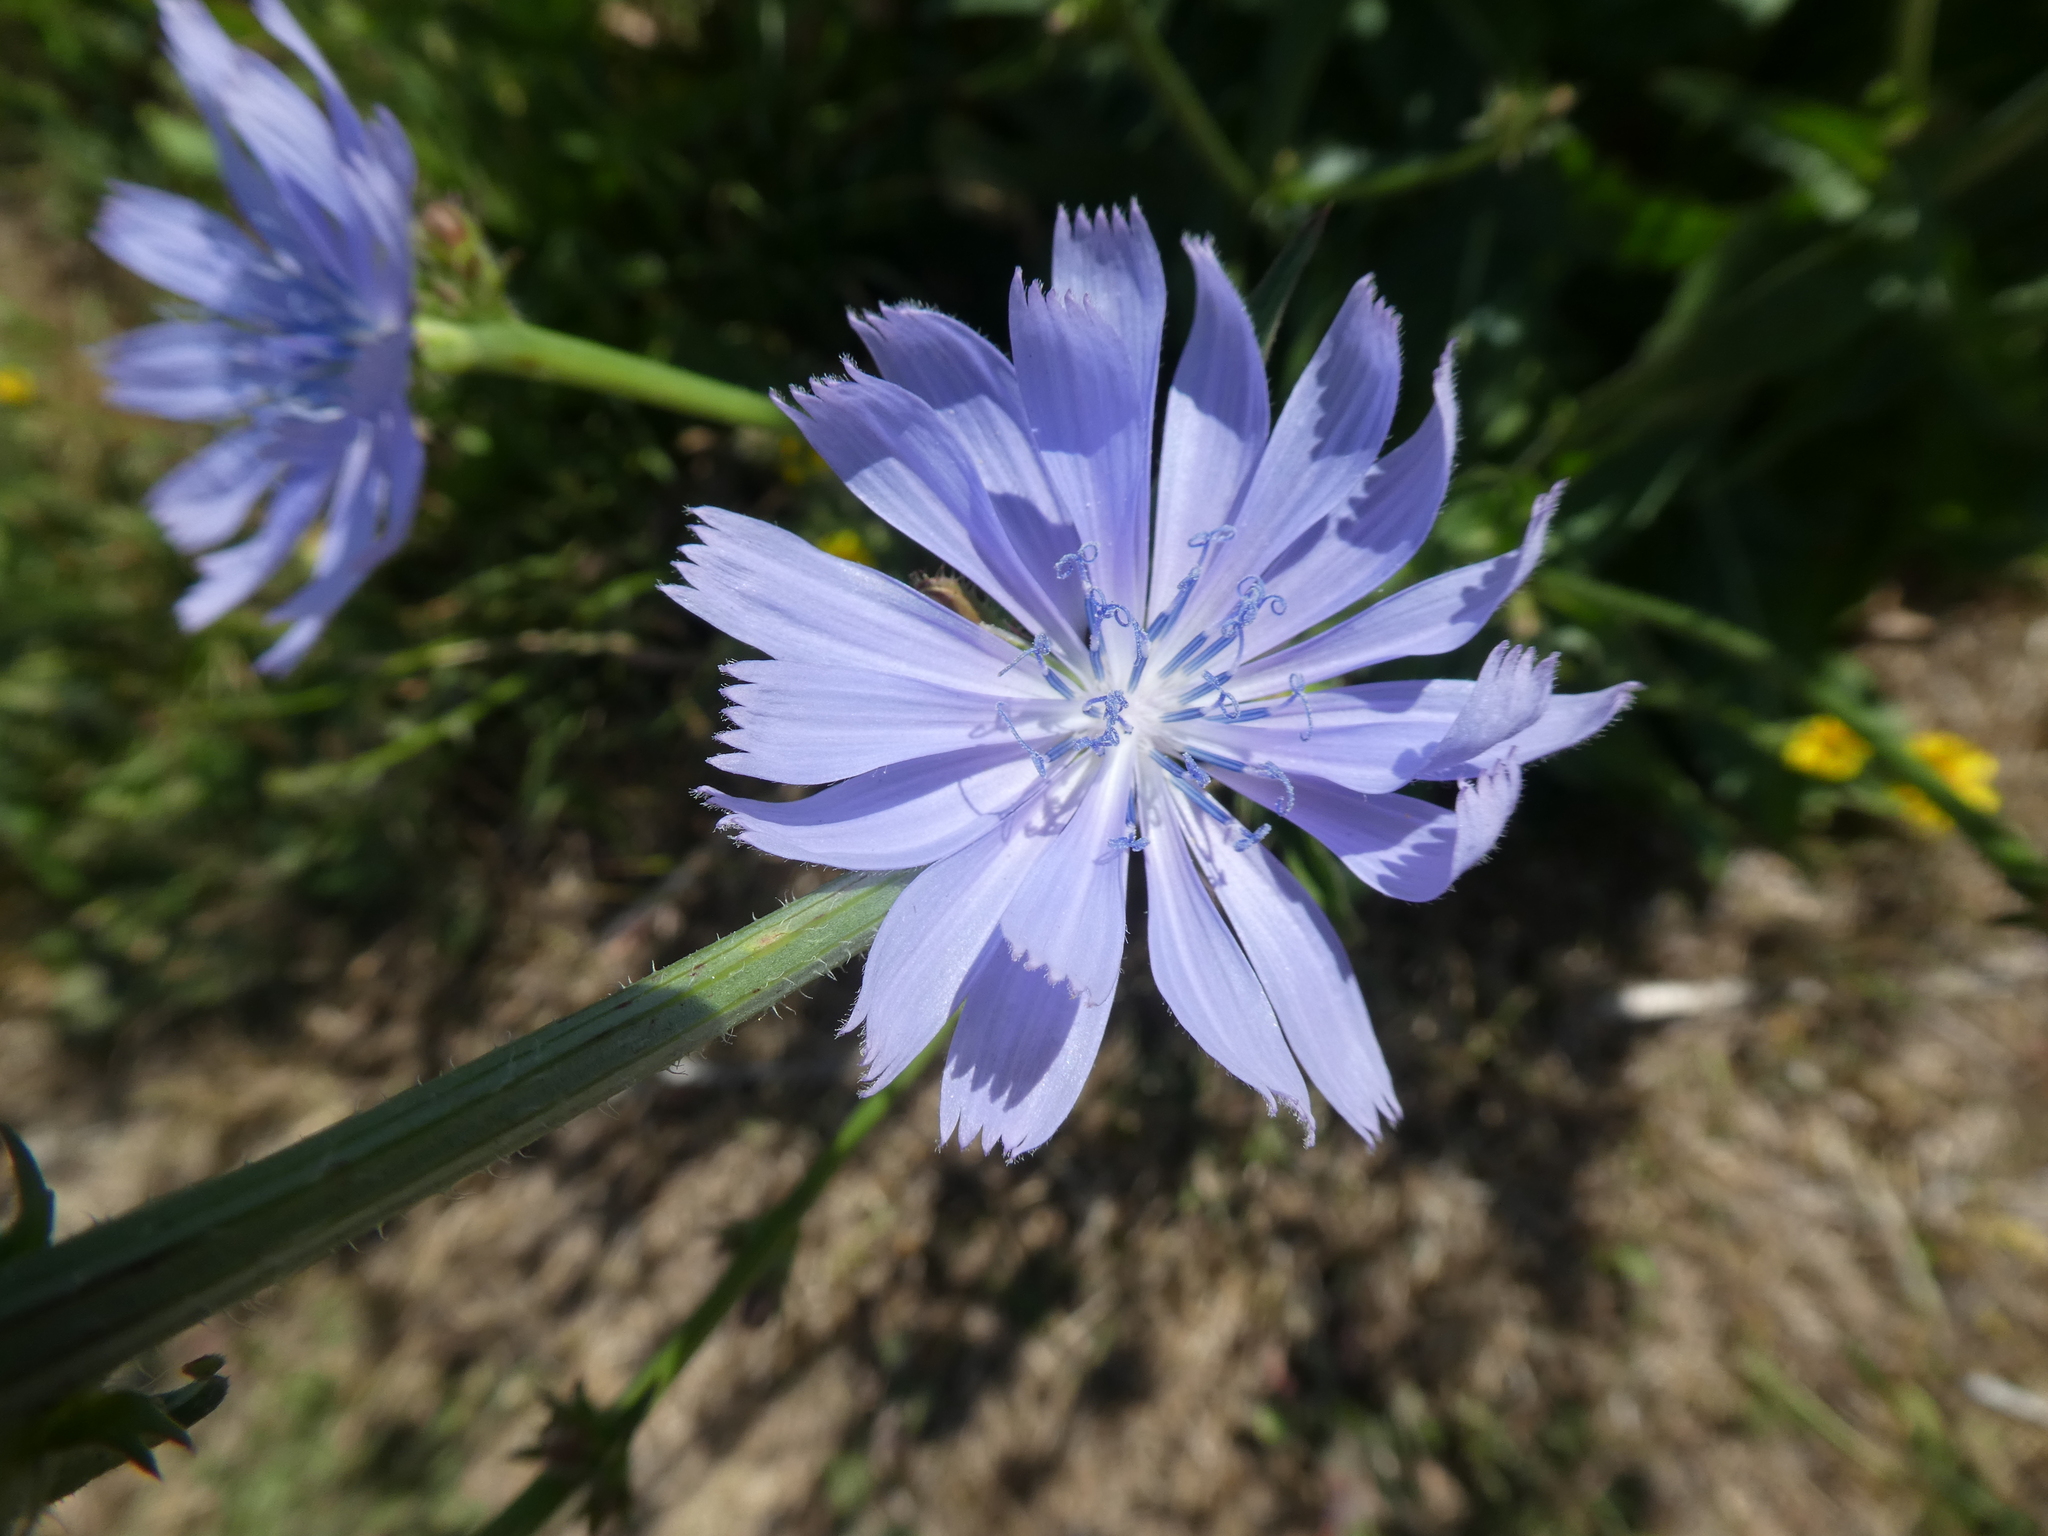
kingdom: Plantae
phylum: Tracheophyta
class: Magnoliopsida
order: Asterales
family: Asteraceae
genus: Cichorium
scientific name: Cichorium intybus
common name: Chicory
